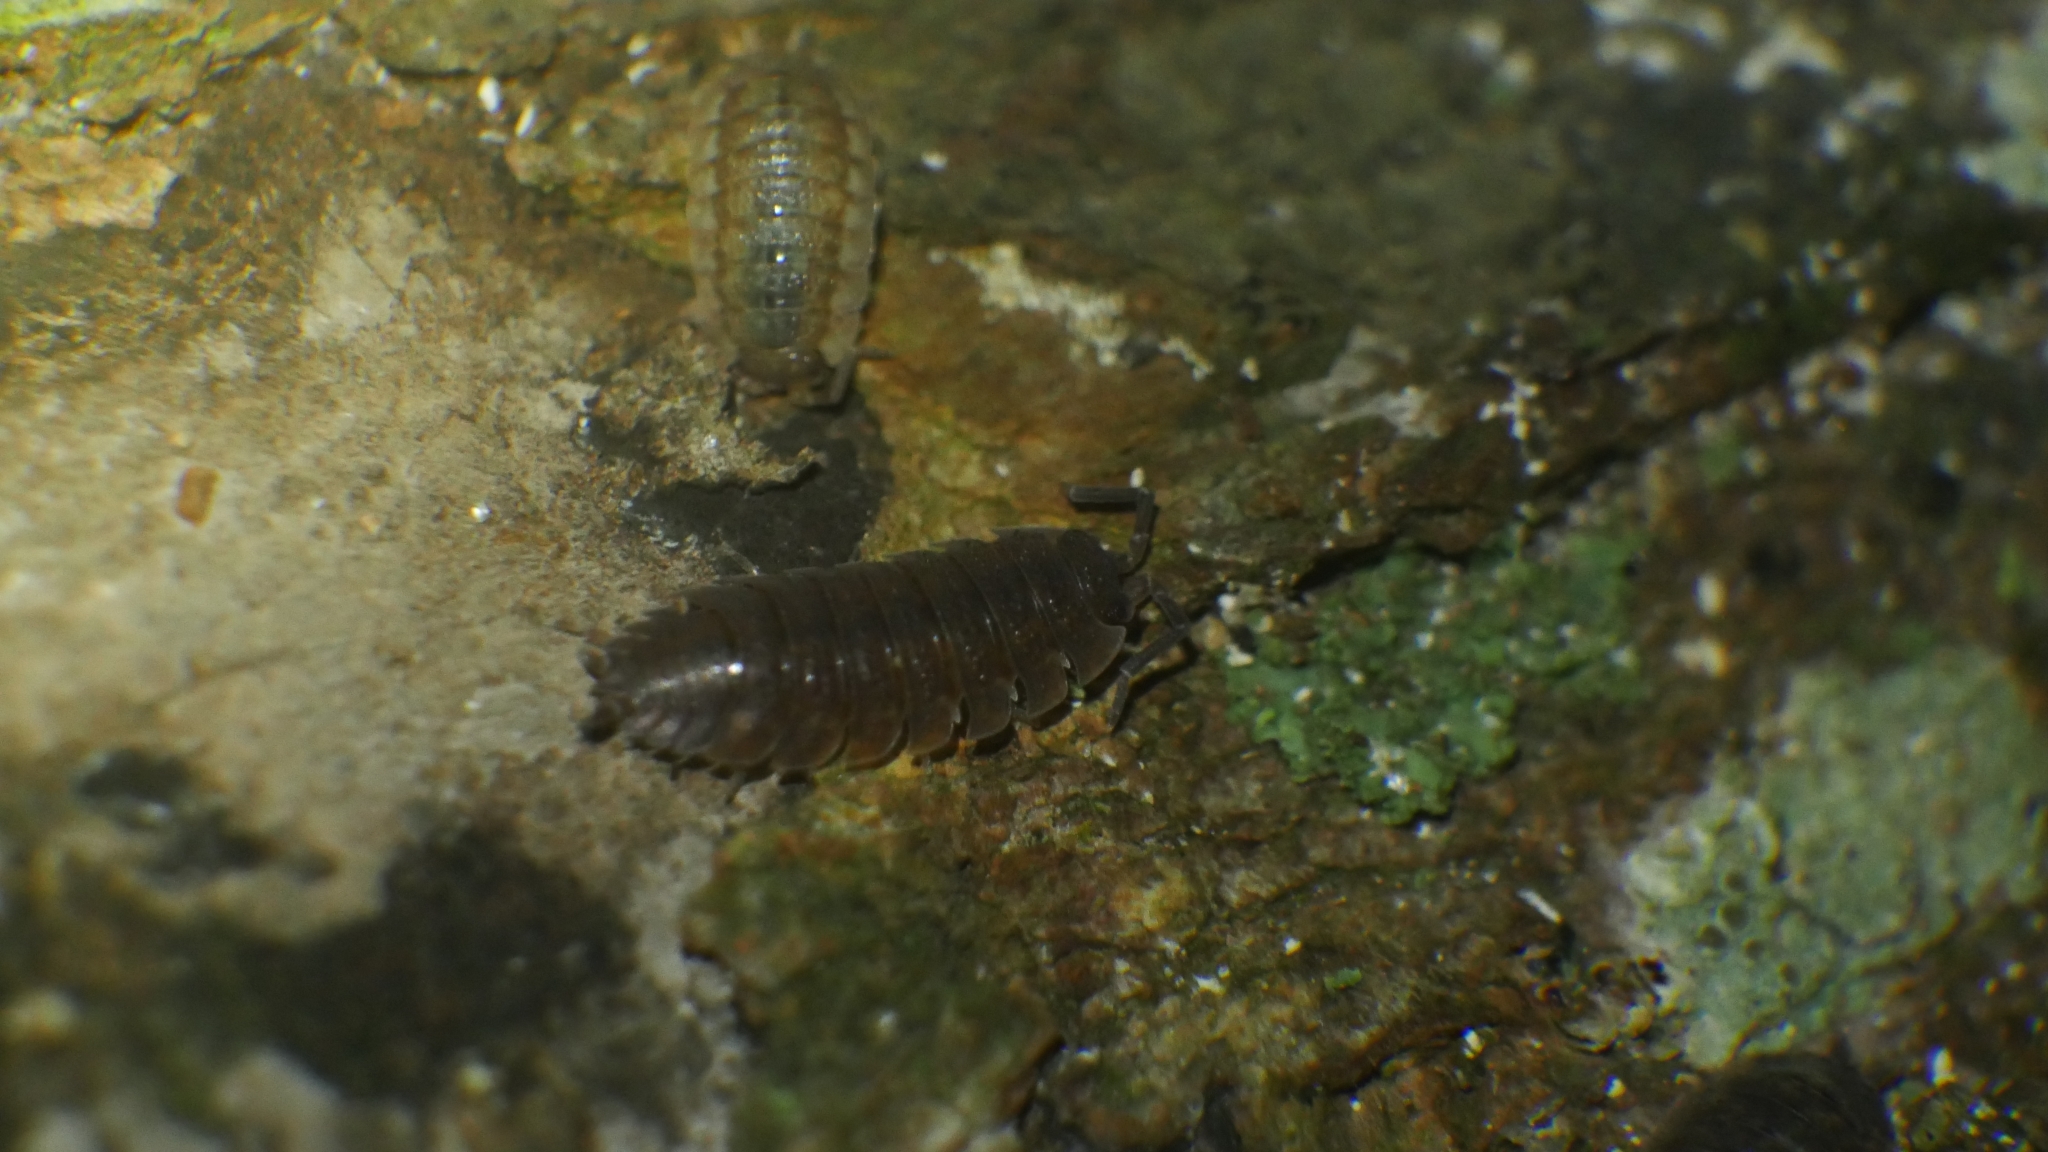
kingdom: Animalia
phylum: Arthropoda
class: Malacostraca
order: Isopoda
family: Porcellionidae
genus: Porcellio
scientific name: Porcellio scaber
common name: Common rough woodlouse
